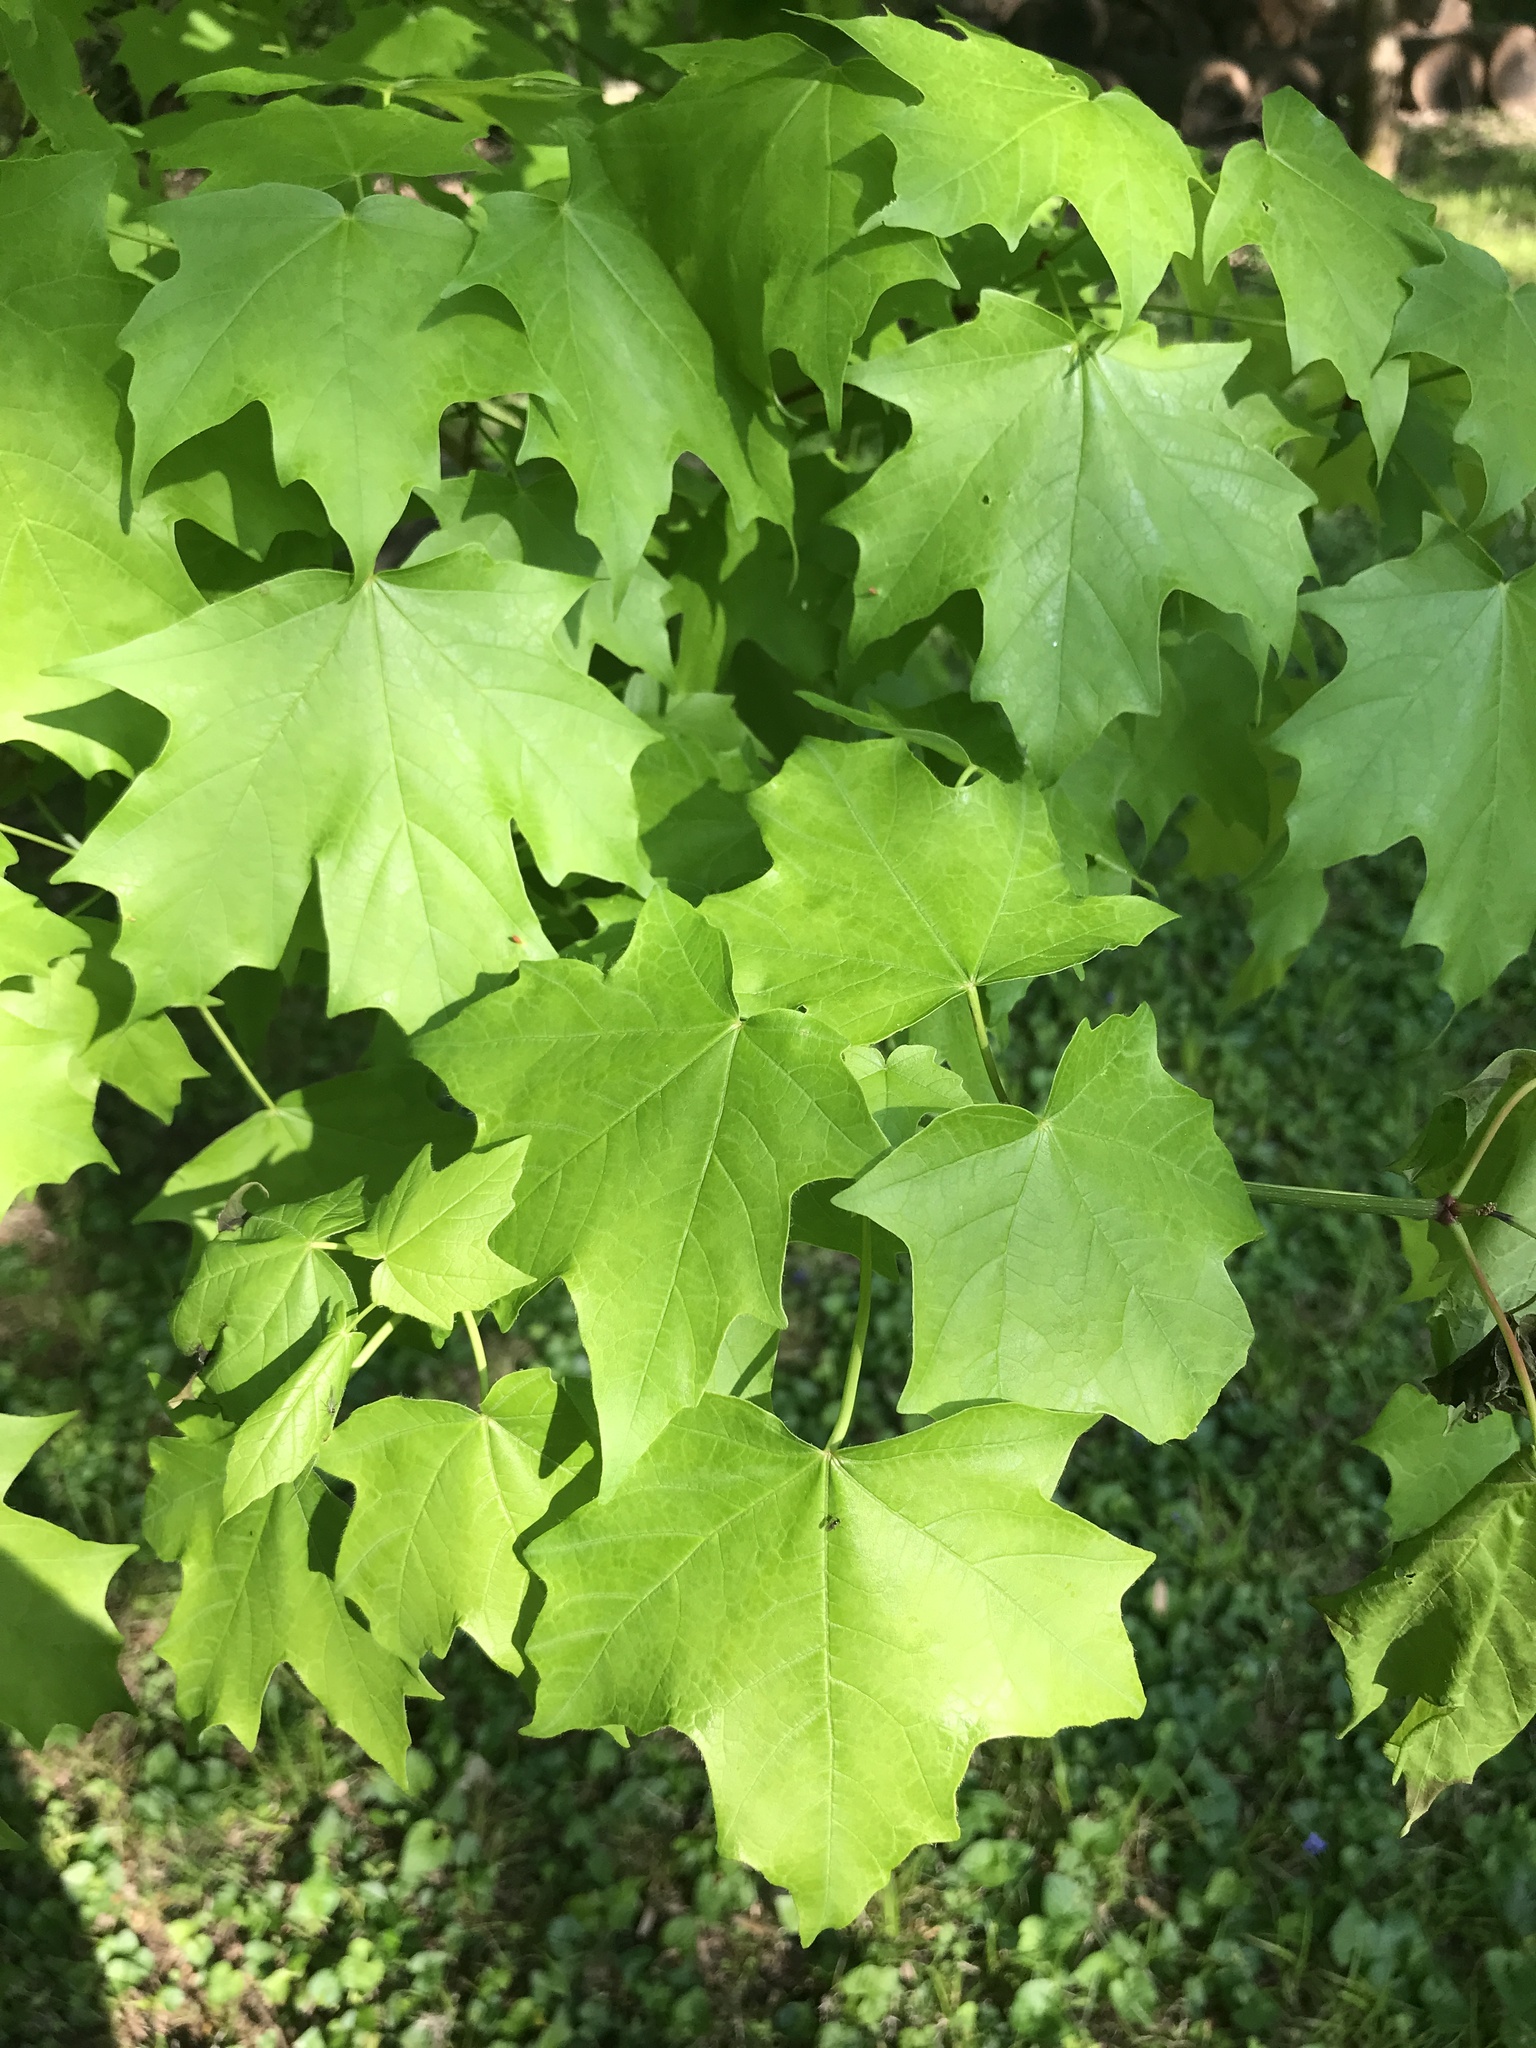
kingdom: Plantae
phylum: Tracheophyta
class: Magnoliopsida
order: Sapindales
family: Sapindaceae
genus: Acer
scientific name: Acer saccharum
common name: Sugar maple
